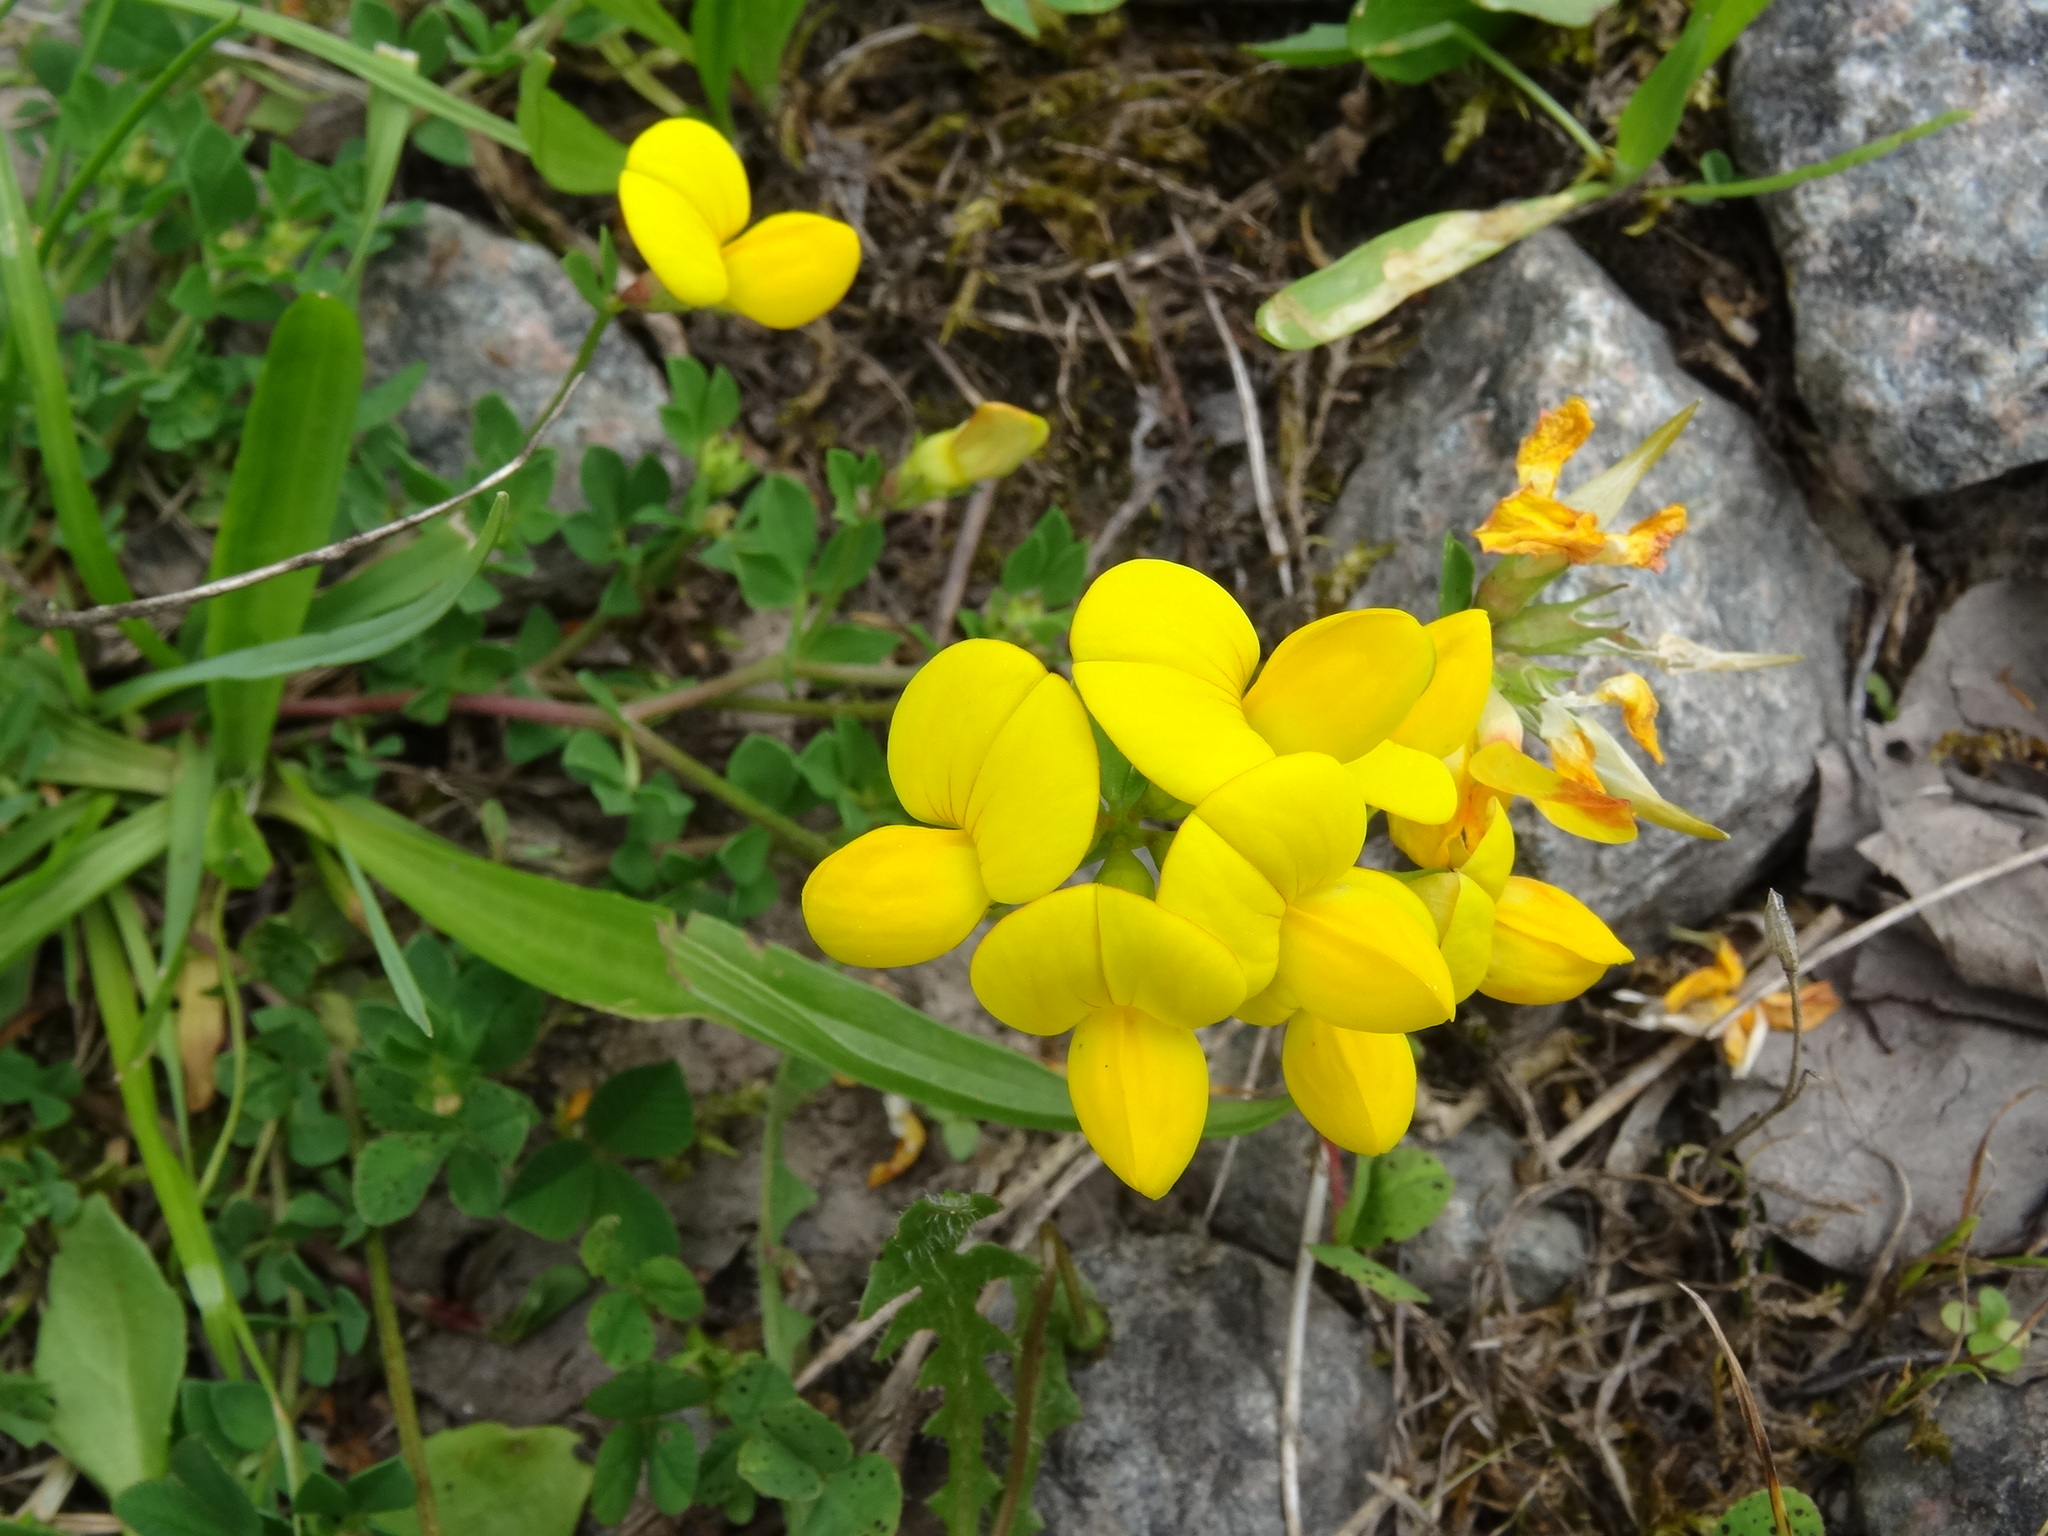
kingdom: Plantae
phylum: Tracheophyta
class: Magnoliopsida
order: Fabales
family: Fabaceae
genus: Lotus
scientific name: Lotus corniculatus
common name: Common bird's-foot-trefoil
